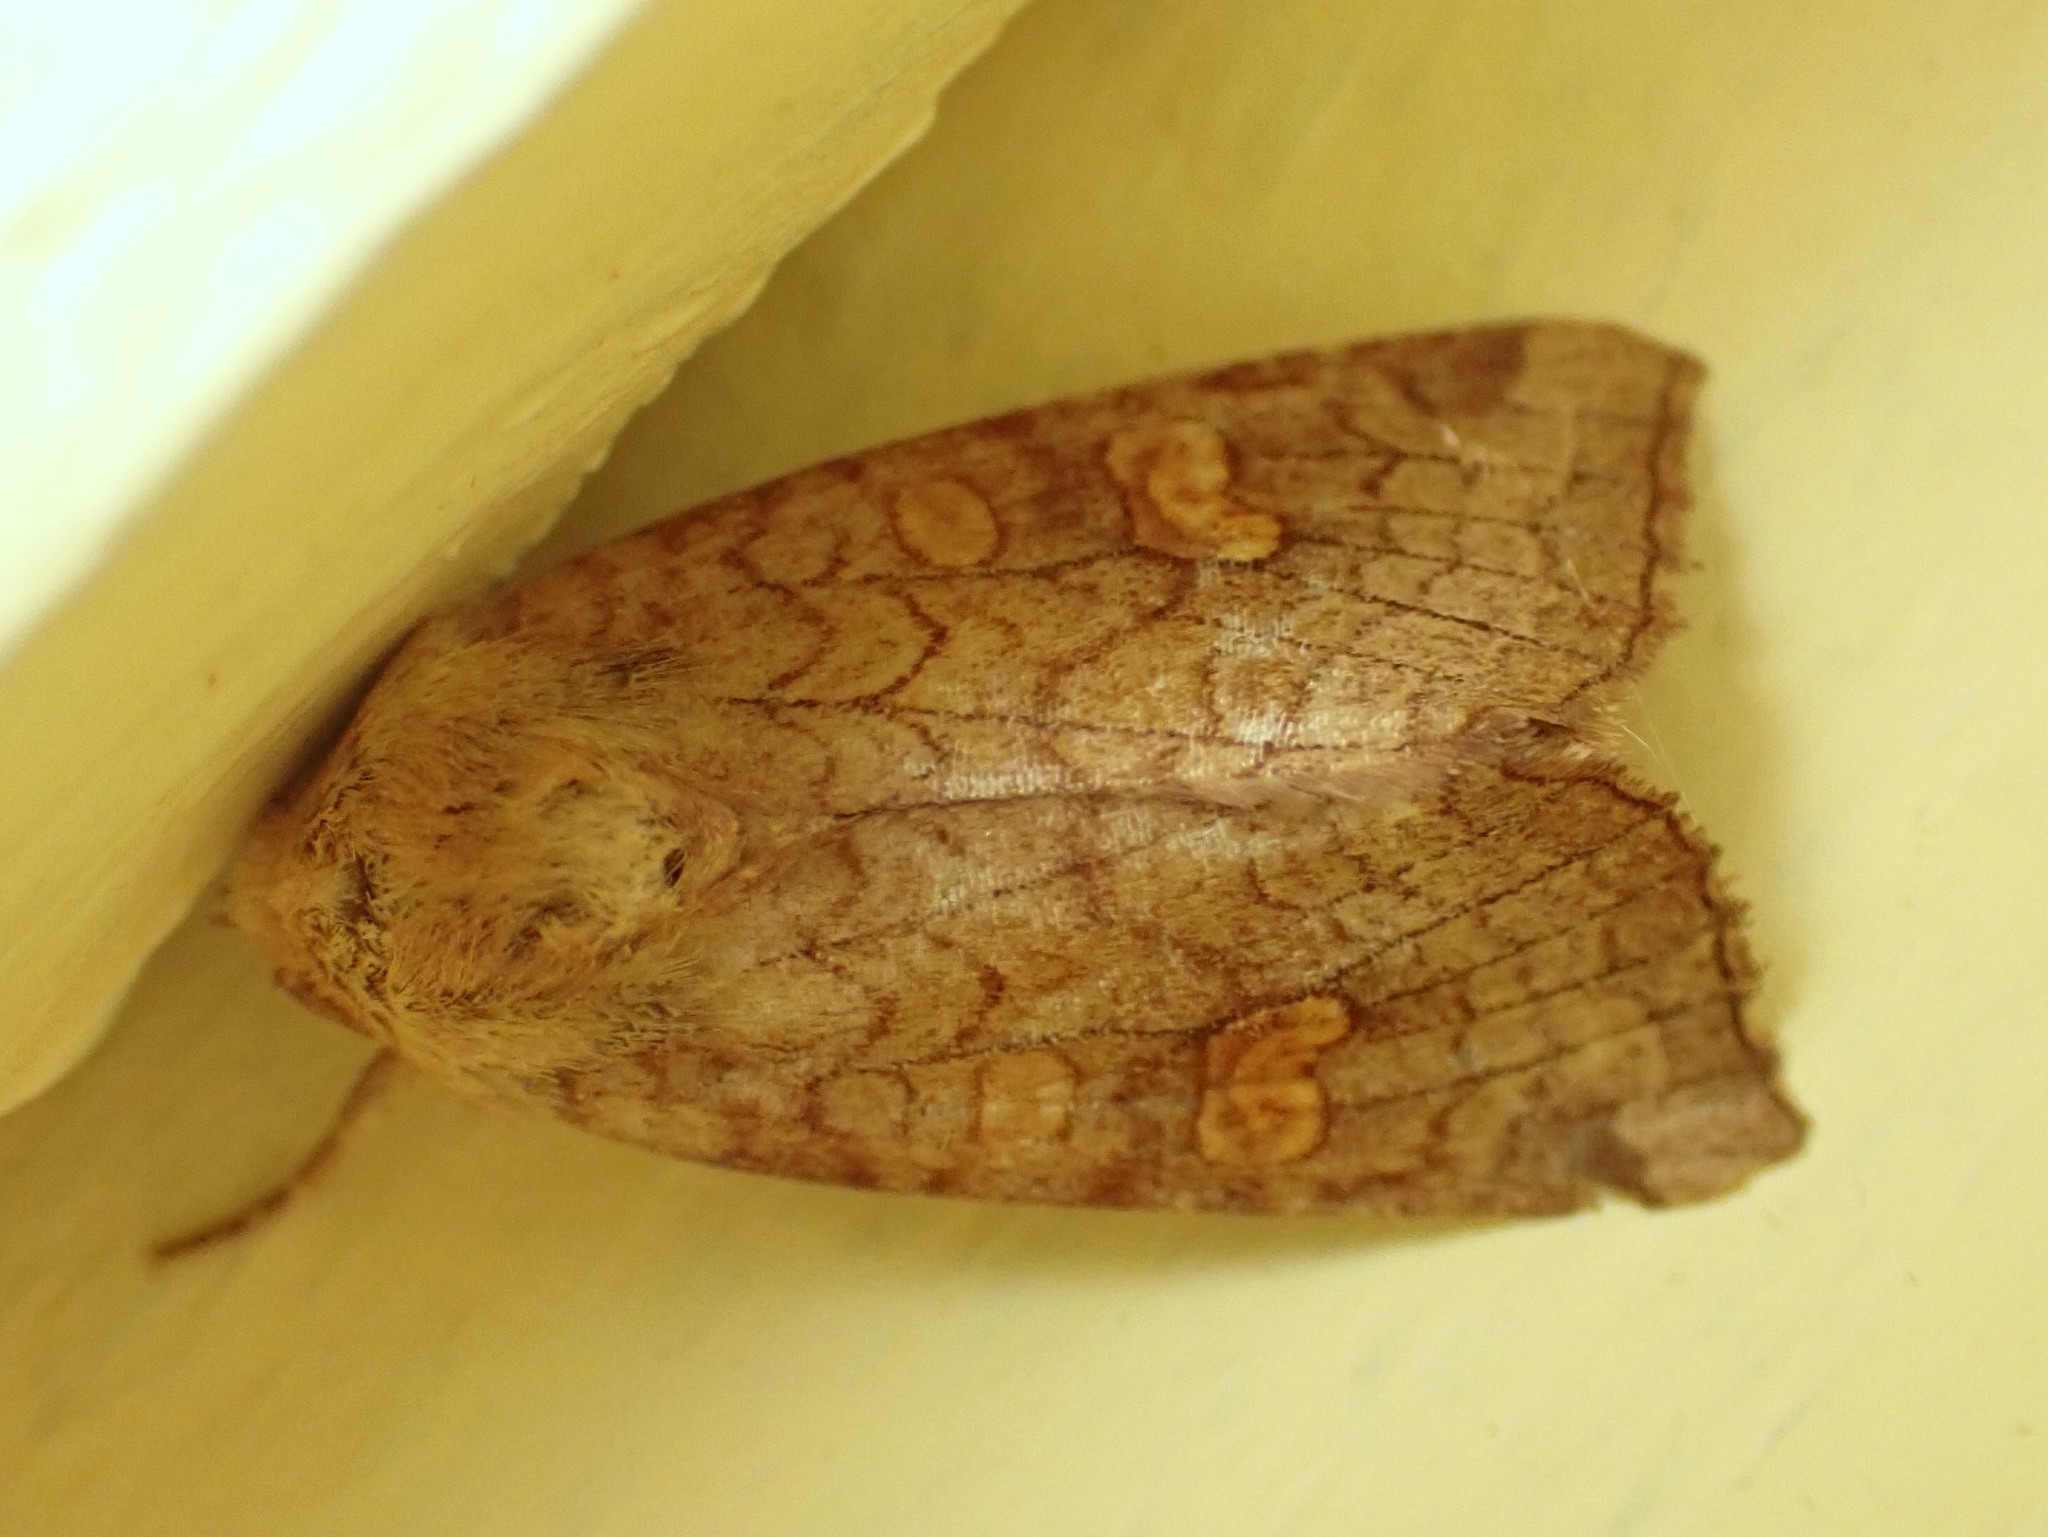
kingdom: Animalia
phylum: Arthropoda
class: Insecta
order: Lepidoptera
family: Noctuidae
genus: Amphipoea
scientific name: Amphipoea americana
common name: American ear moth
